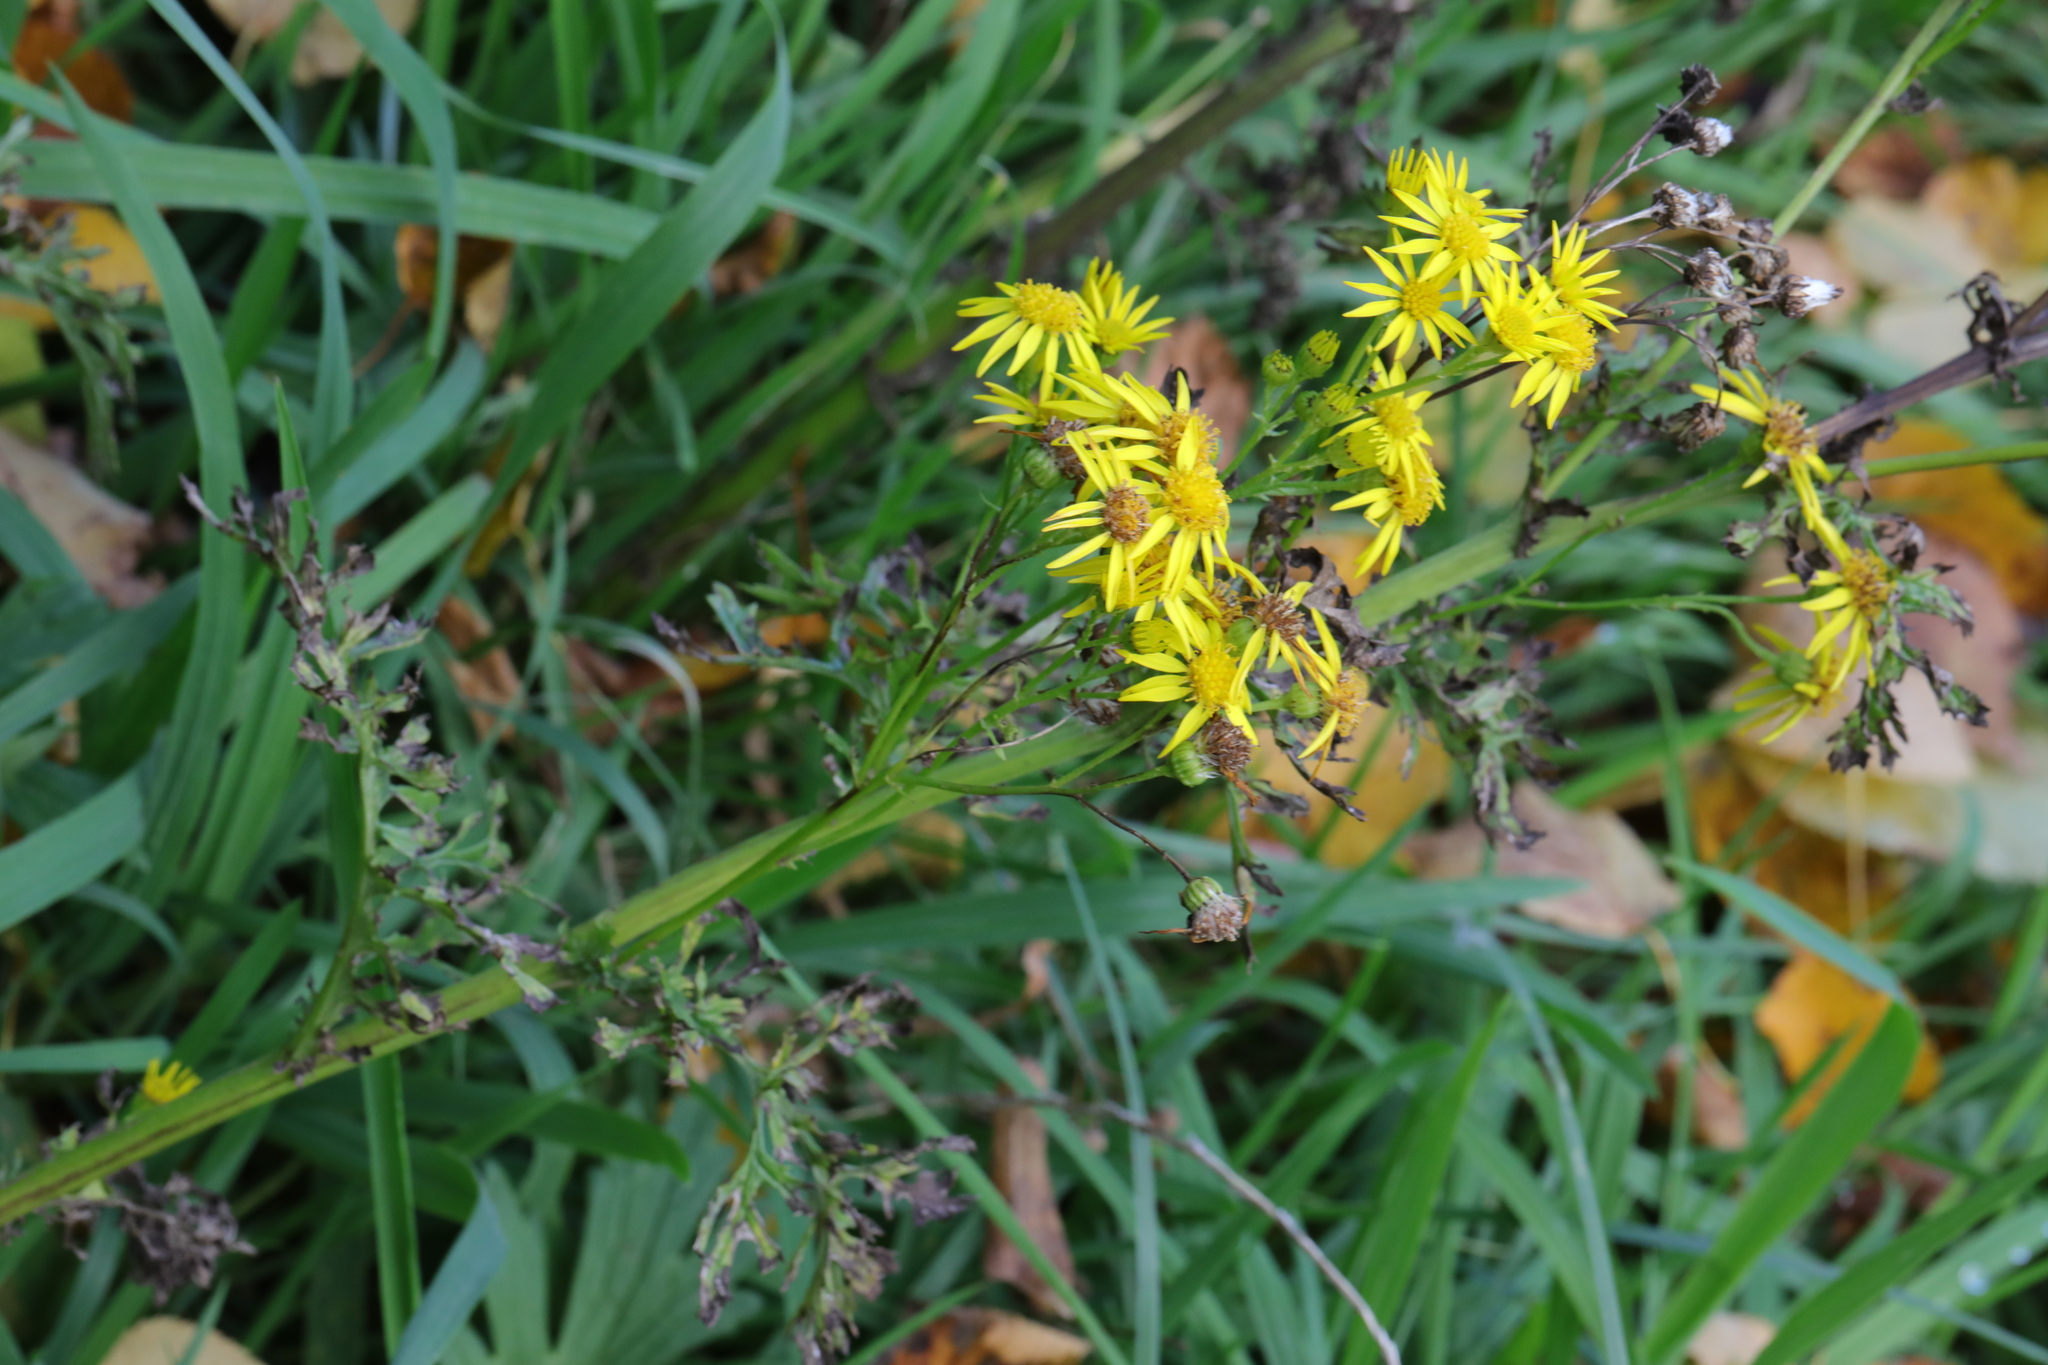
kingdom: Plantae
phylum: Tracheophyta
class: Magnoliopsida
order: Asterales
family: Asteraceae
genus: Jacobaea
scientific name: Jacobaea vulgaris
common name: Stinking willie
